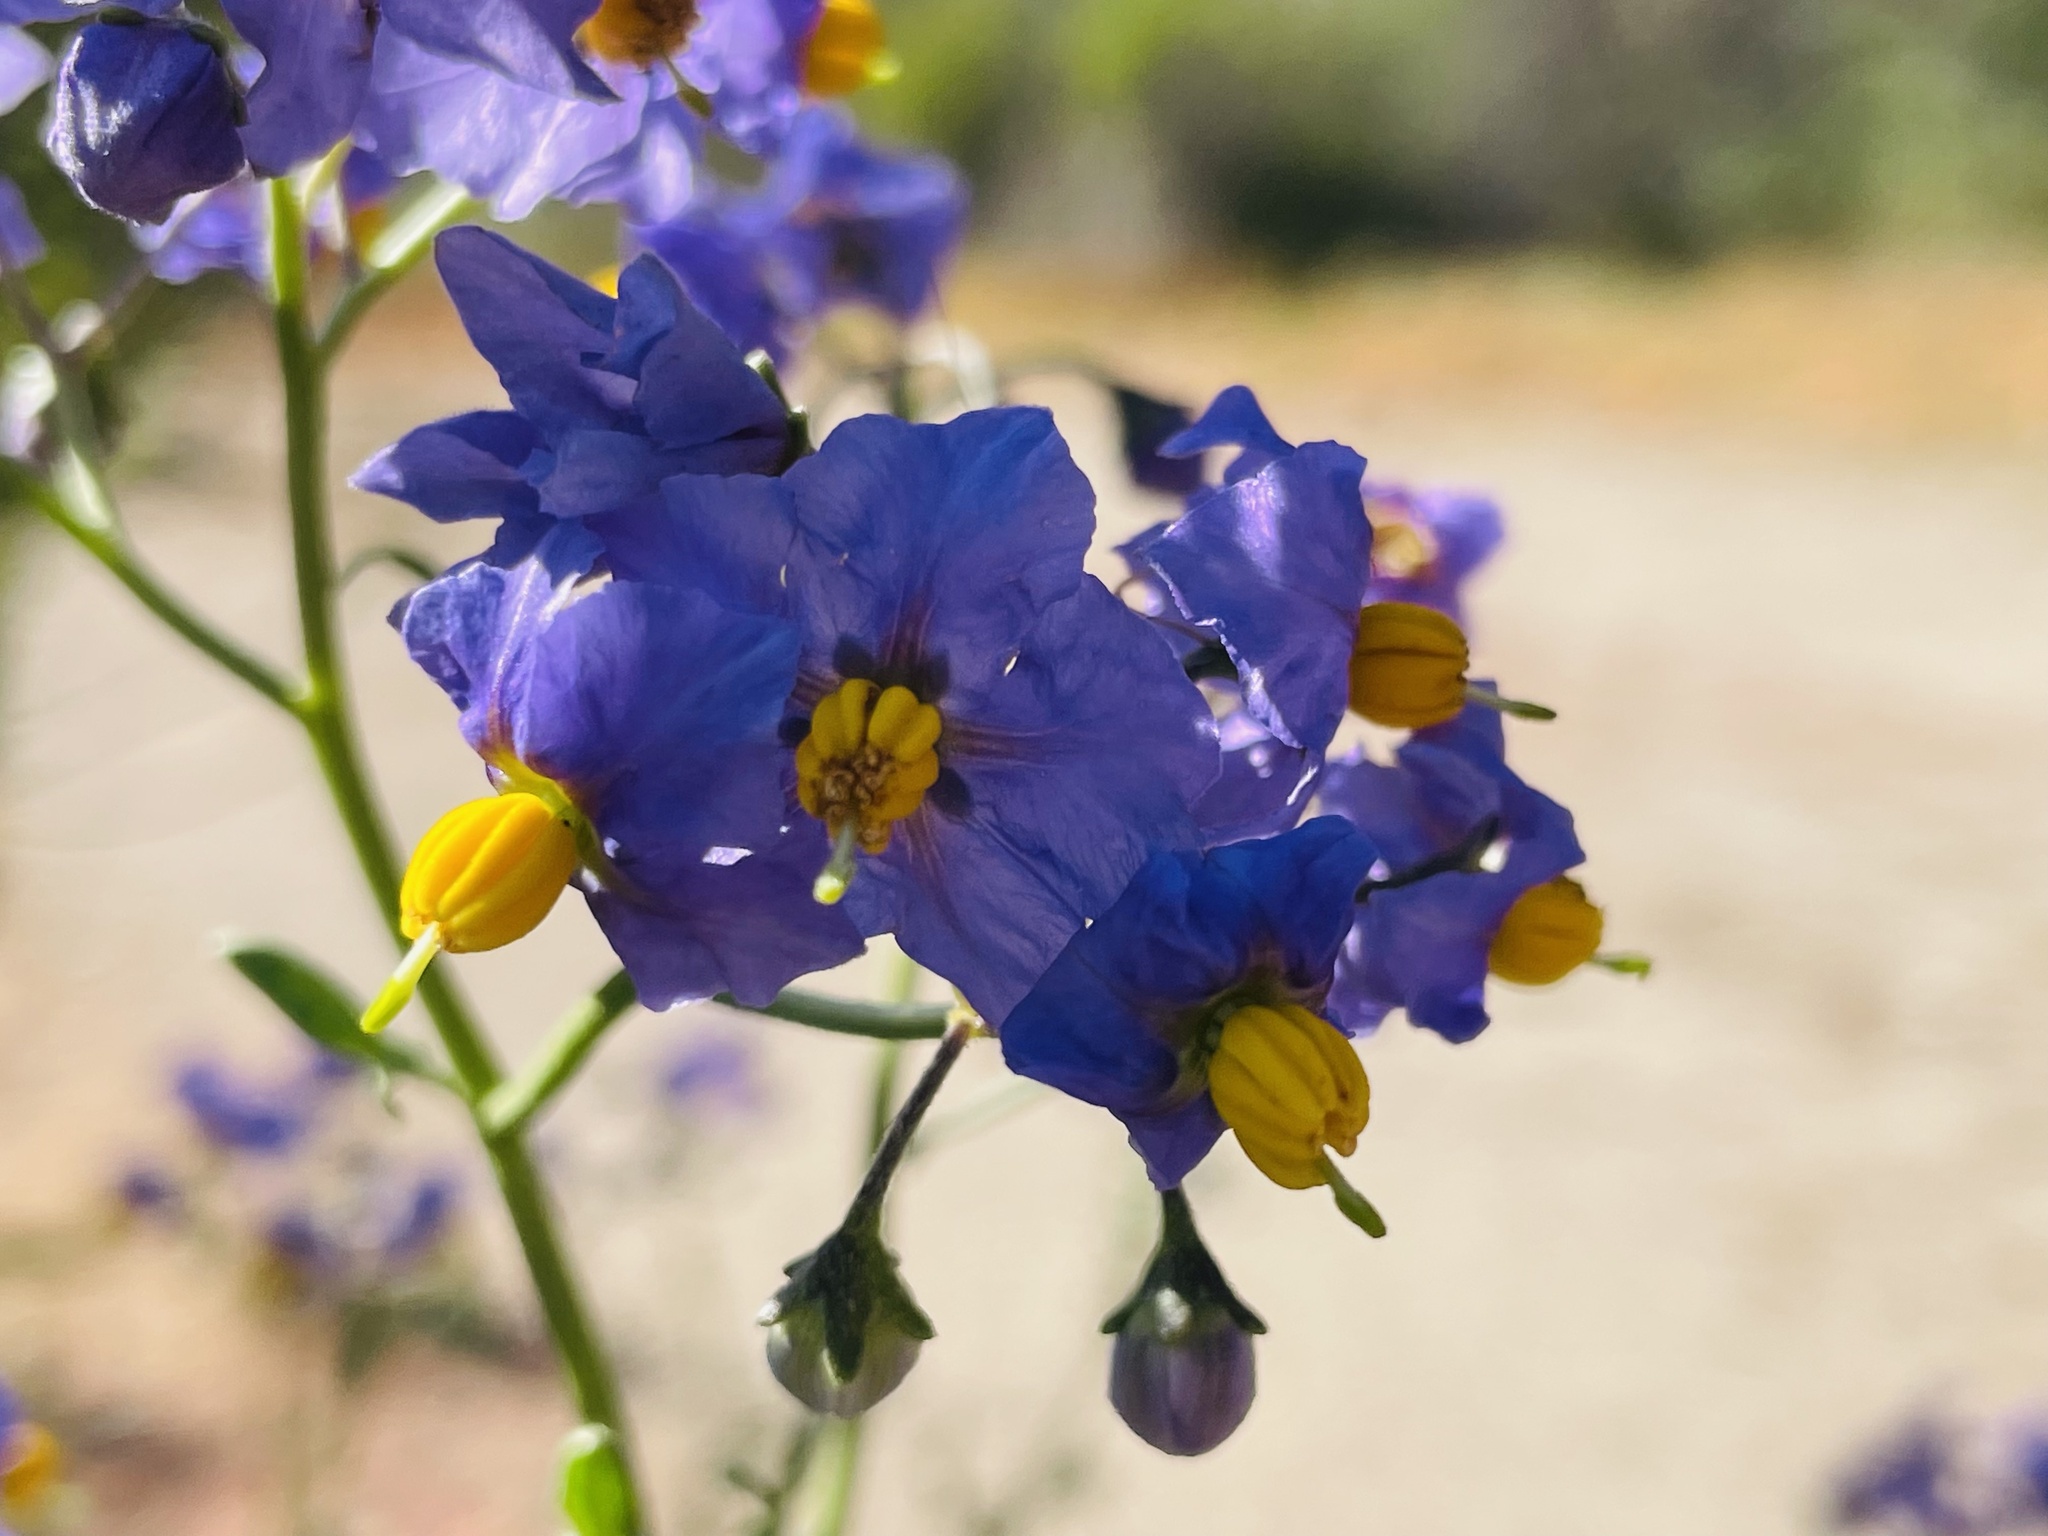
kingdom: Plantae
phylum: Tracheophyta
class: Magnoliopsida
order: Solanales
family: Solanaceae
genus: Solanum
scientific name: Solanum pinnatum
